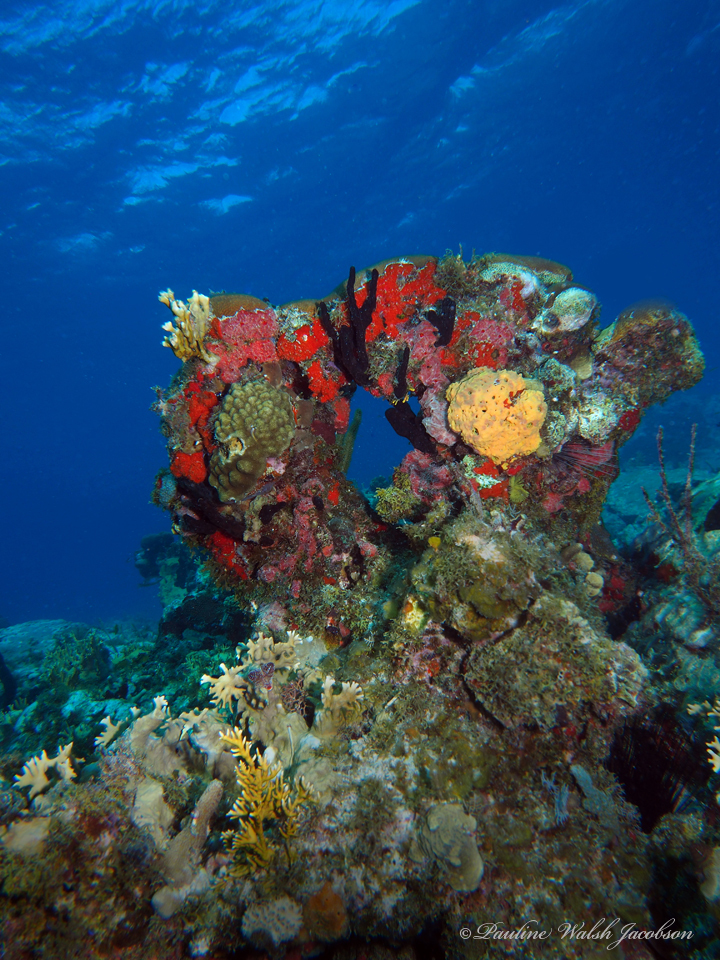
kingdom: Animalia
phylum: Porifera
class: Demospongiae
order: Verongiida
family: Aplysinidae
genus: Aiolochroia
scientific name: Aiolochroia crassa
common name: Branching tube sponge
